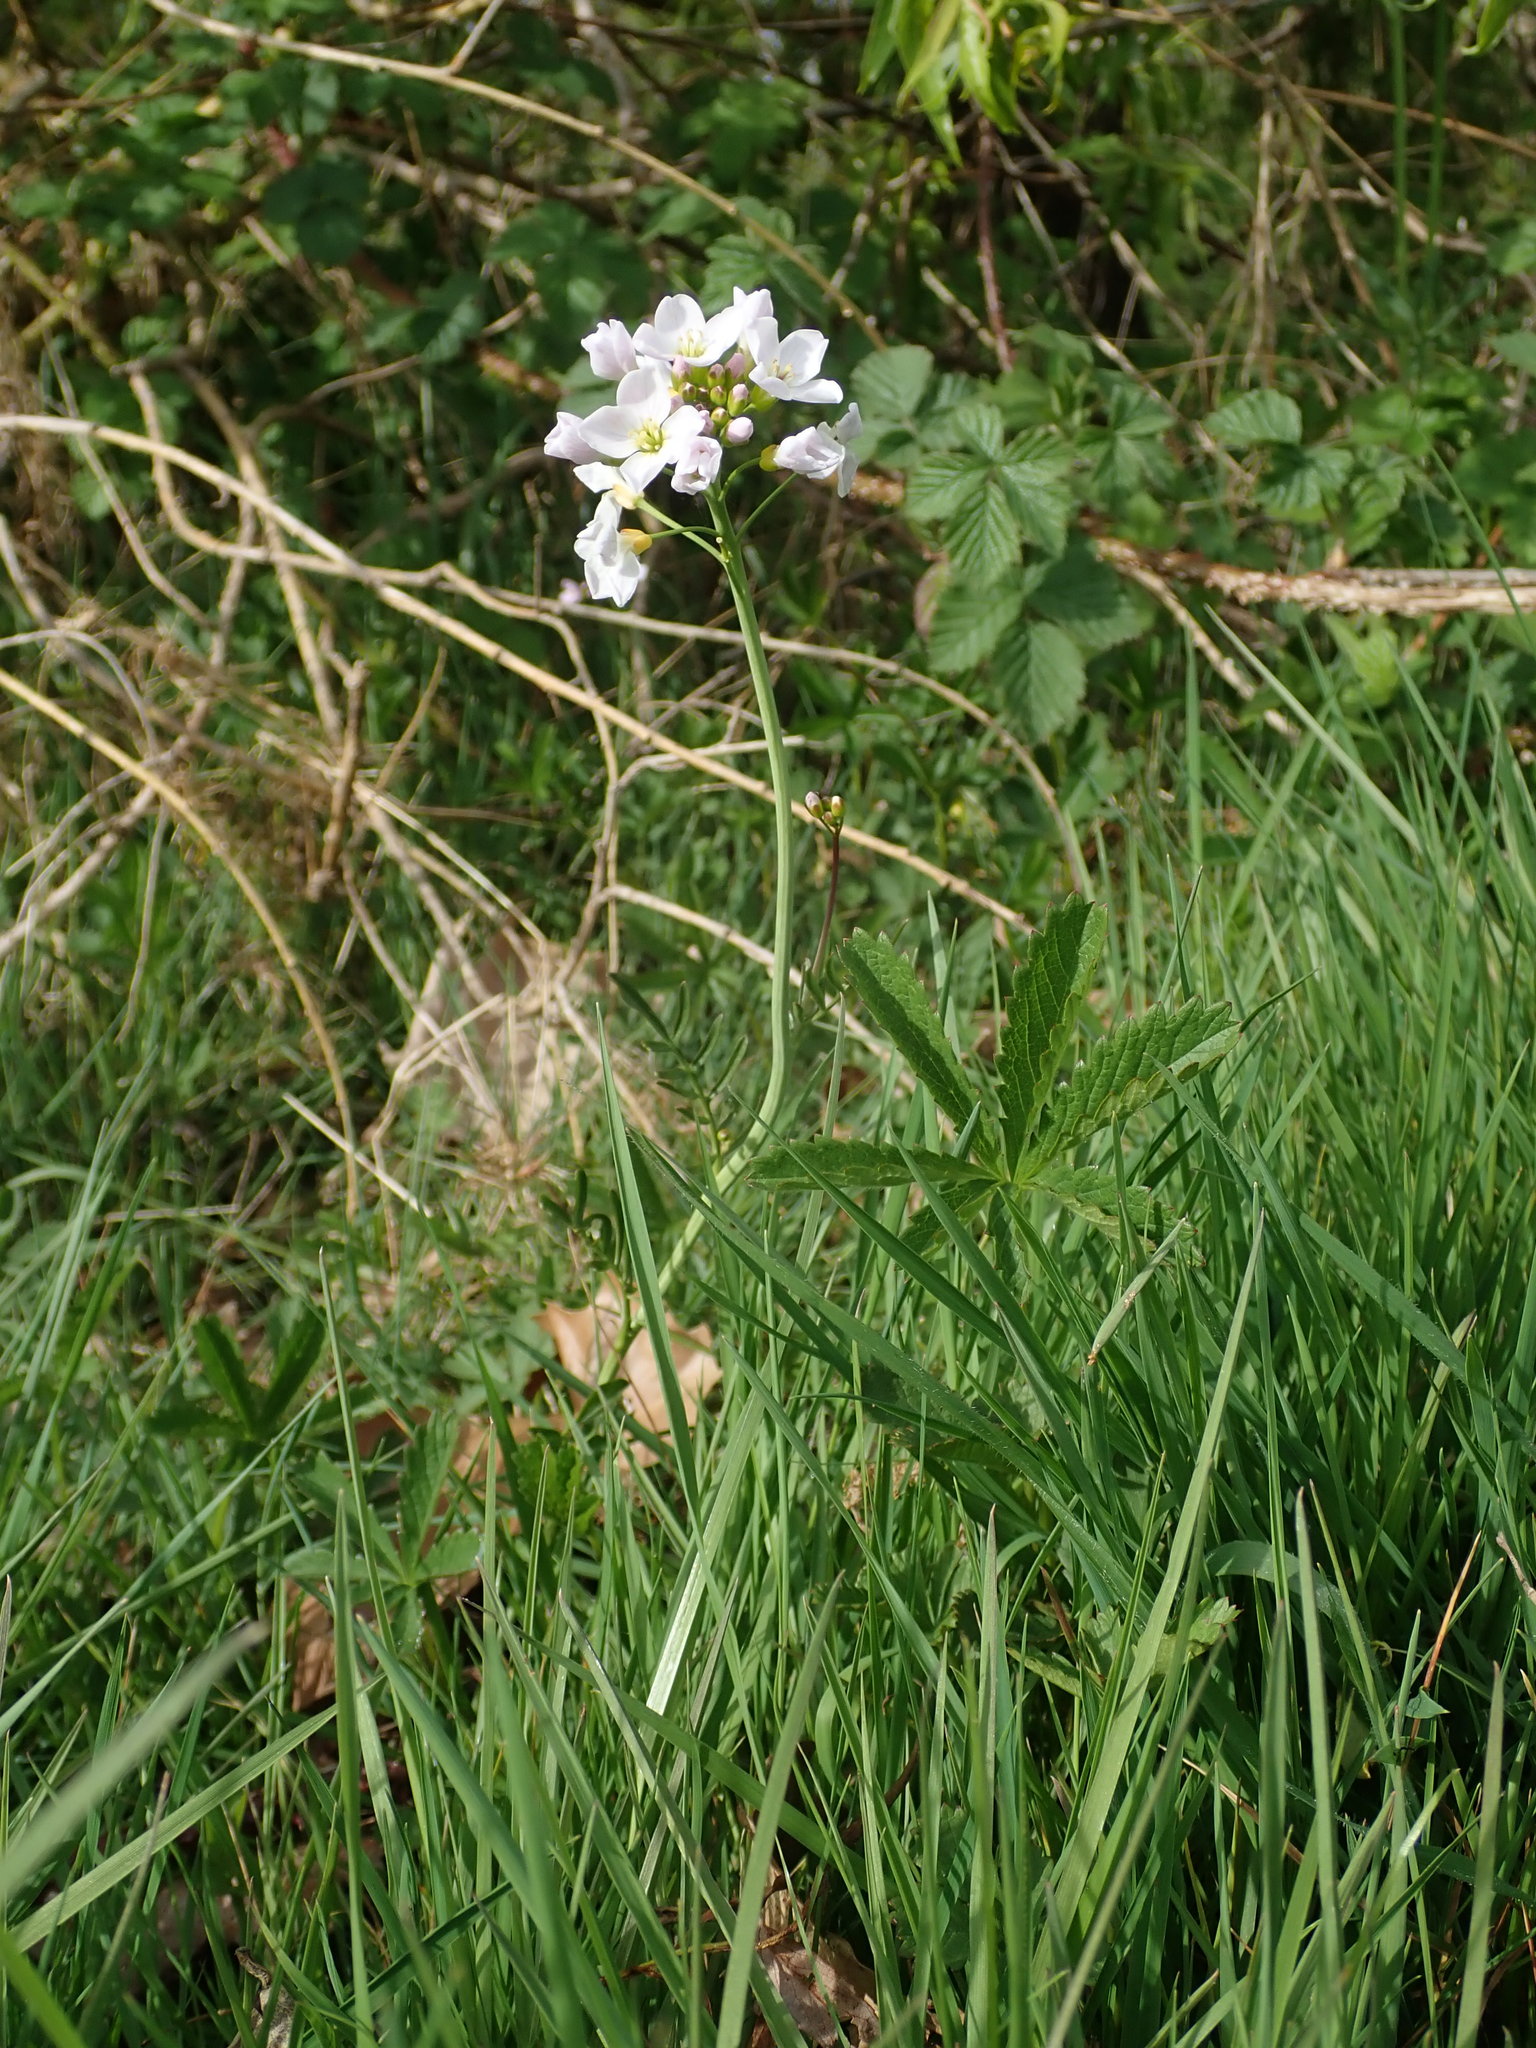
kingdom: Plantae
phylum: Tracheophyta
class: Magnoliopsida
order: Brassicales
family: Brassicaceae
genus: Cardamine
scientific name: Cardamine pratensis
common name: Cuckoo flower
